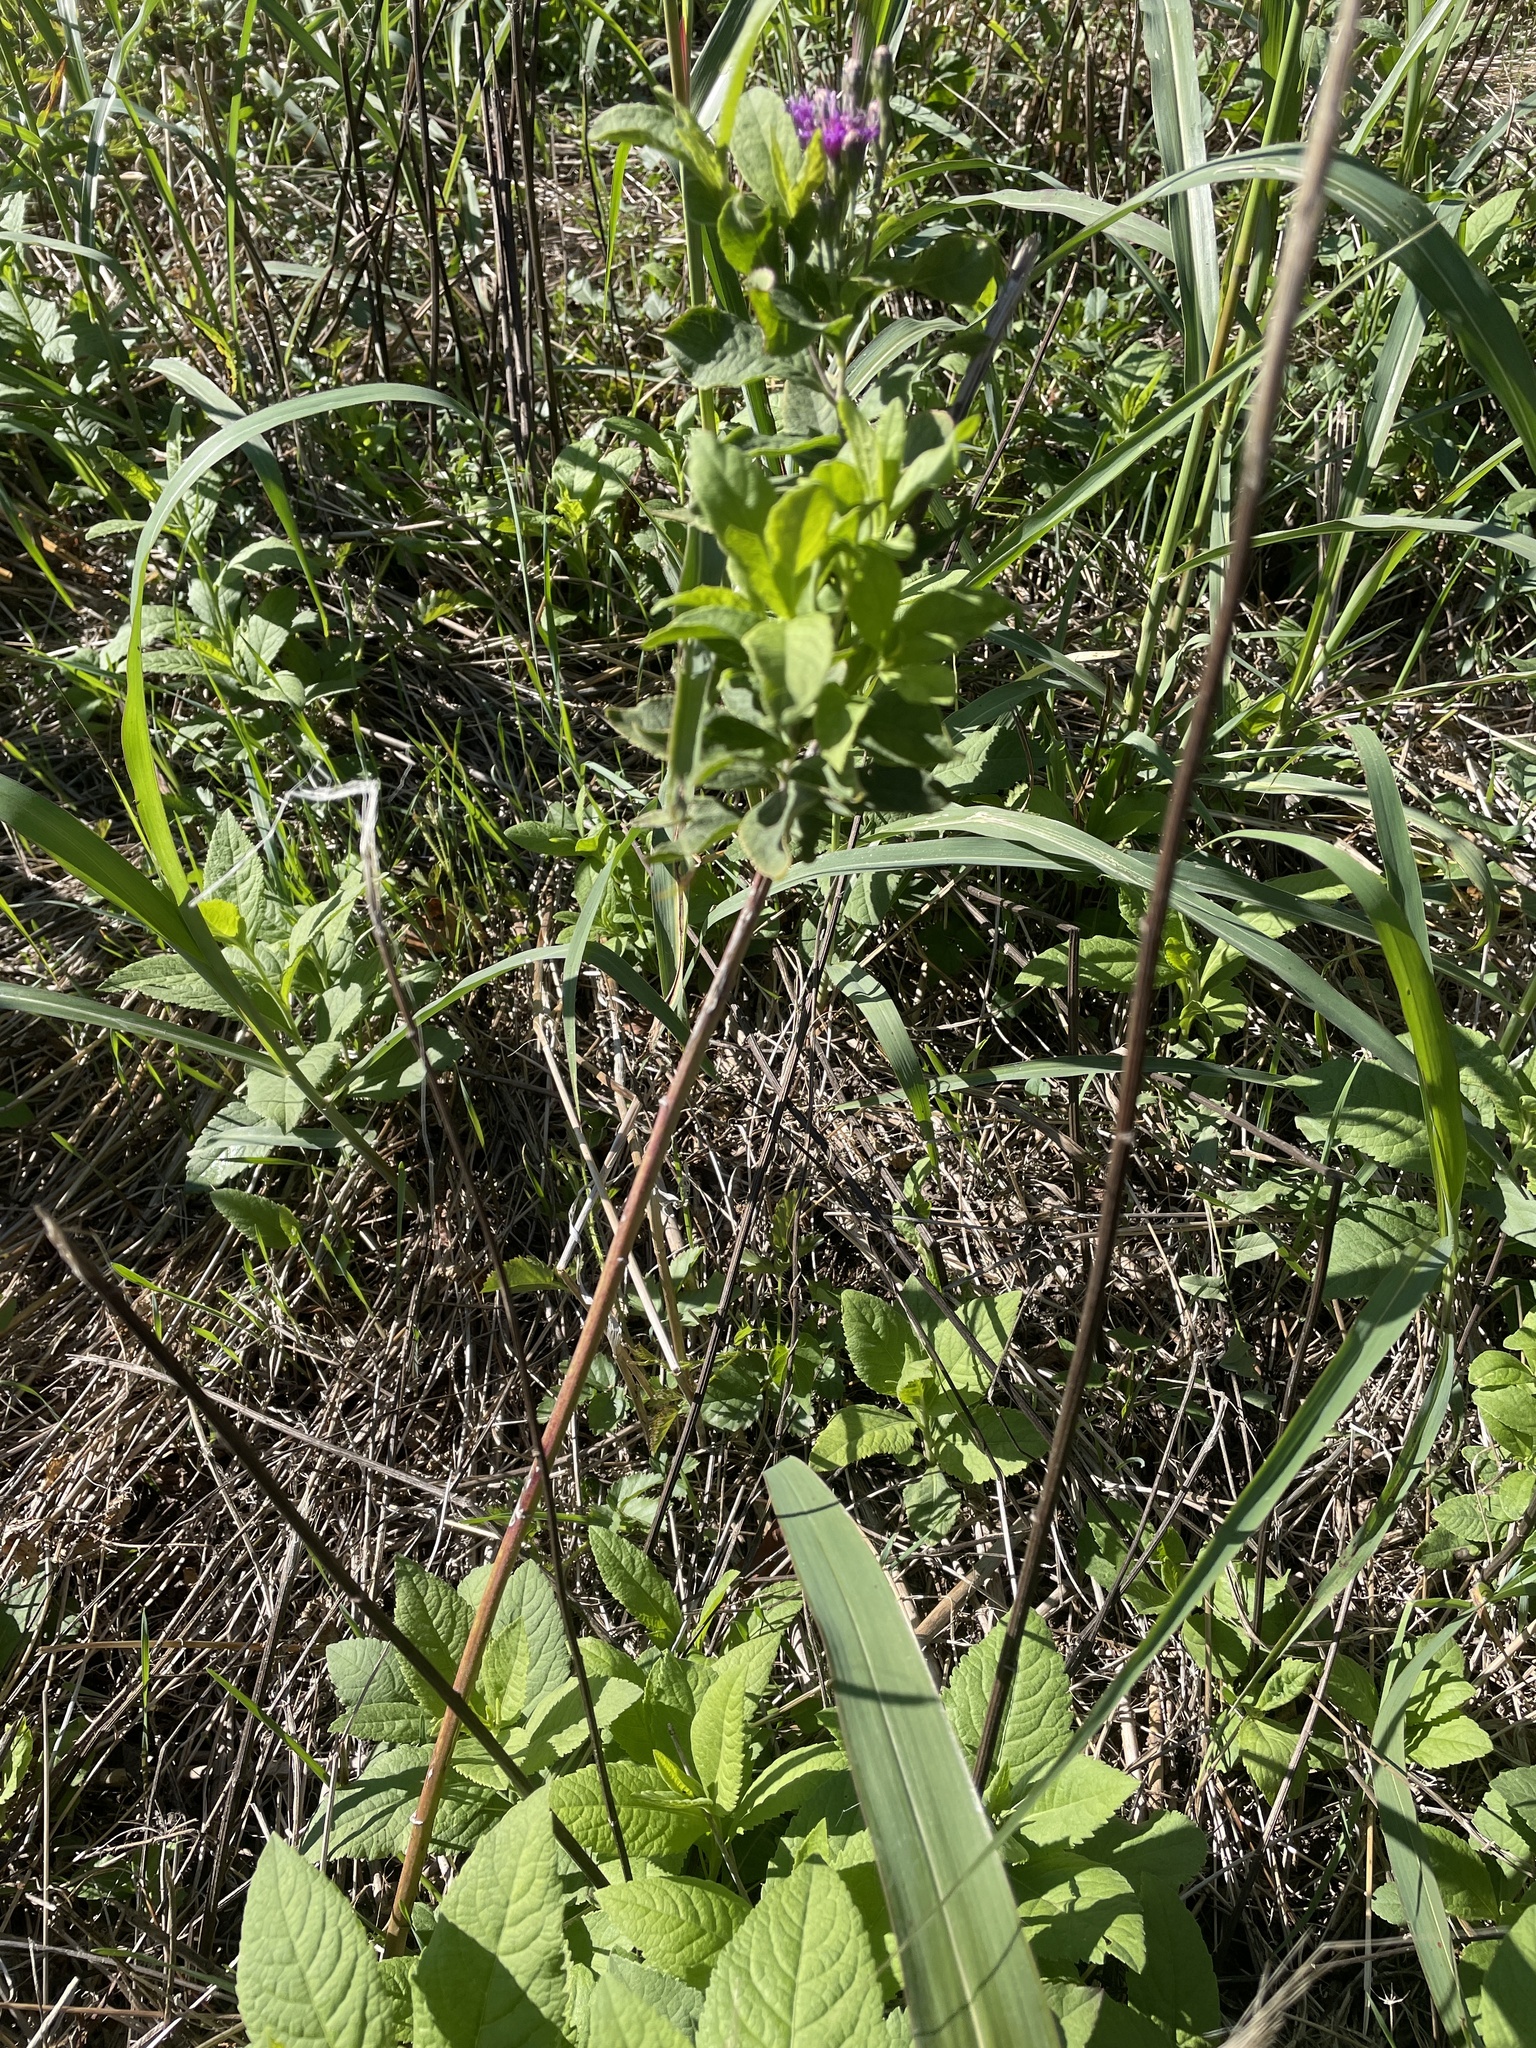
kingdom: Plantae
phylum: Tracheophyta
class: Magnoliopsida
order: Asterales
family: Asteraceae
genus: Vernonia
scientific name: Vernonia baldwinii
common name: Western ironweed
